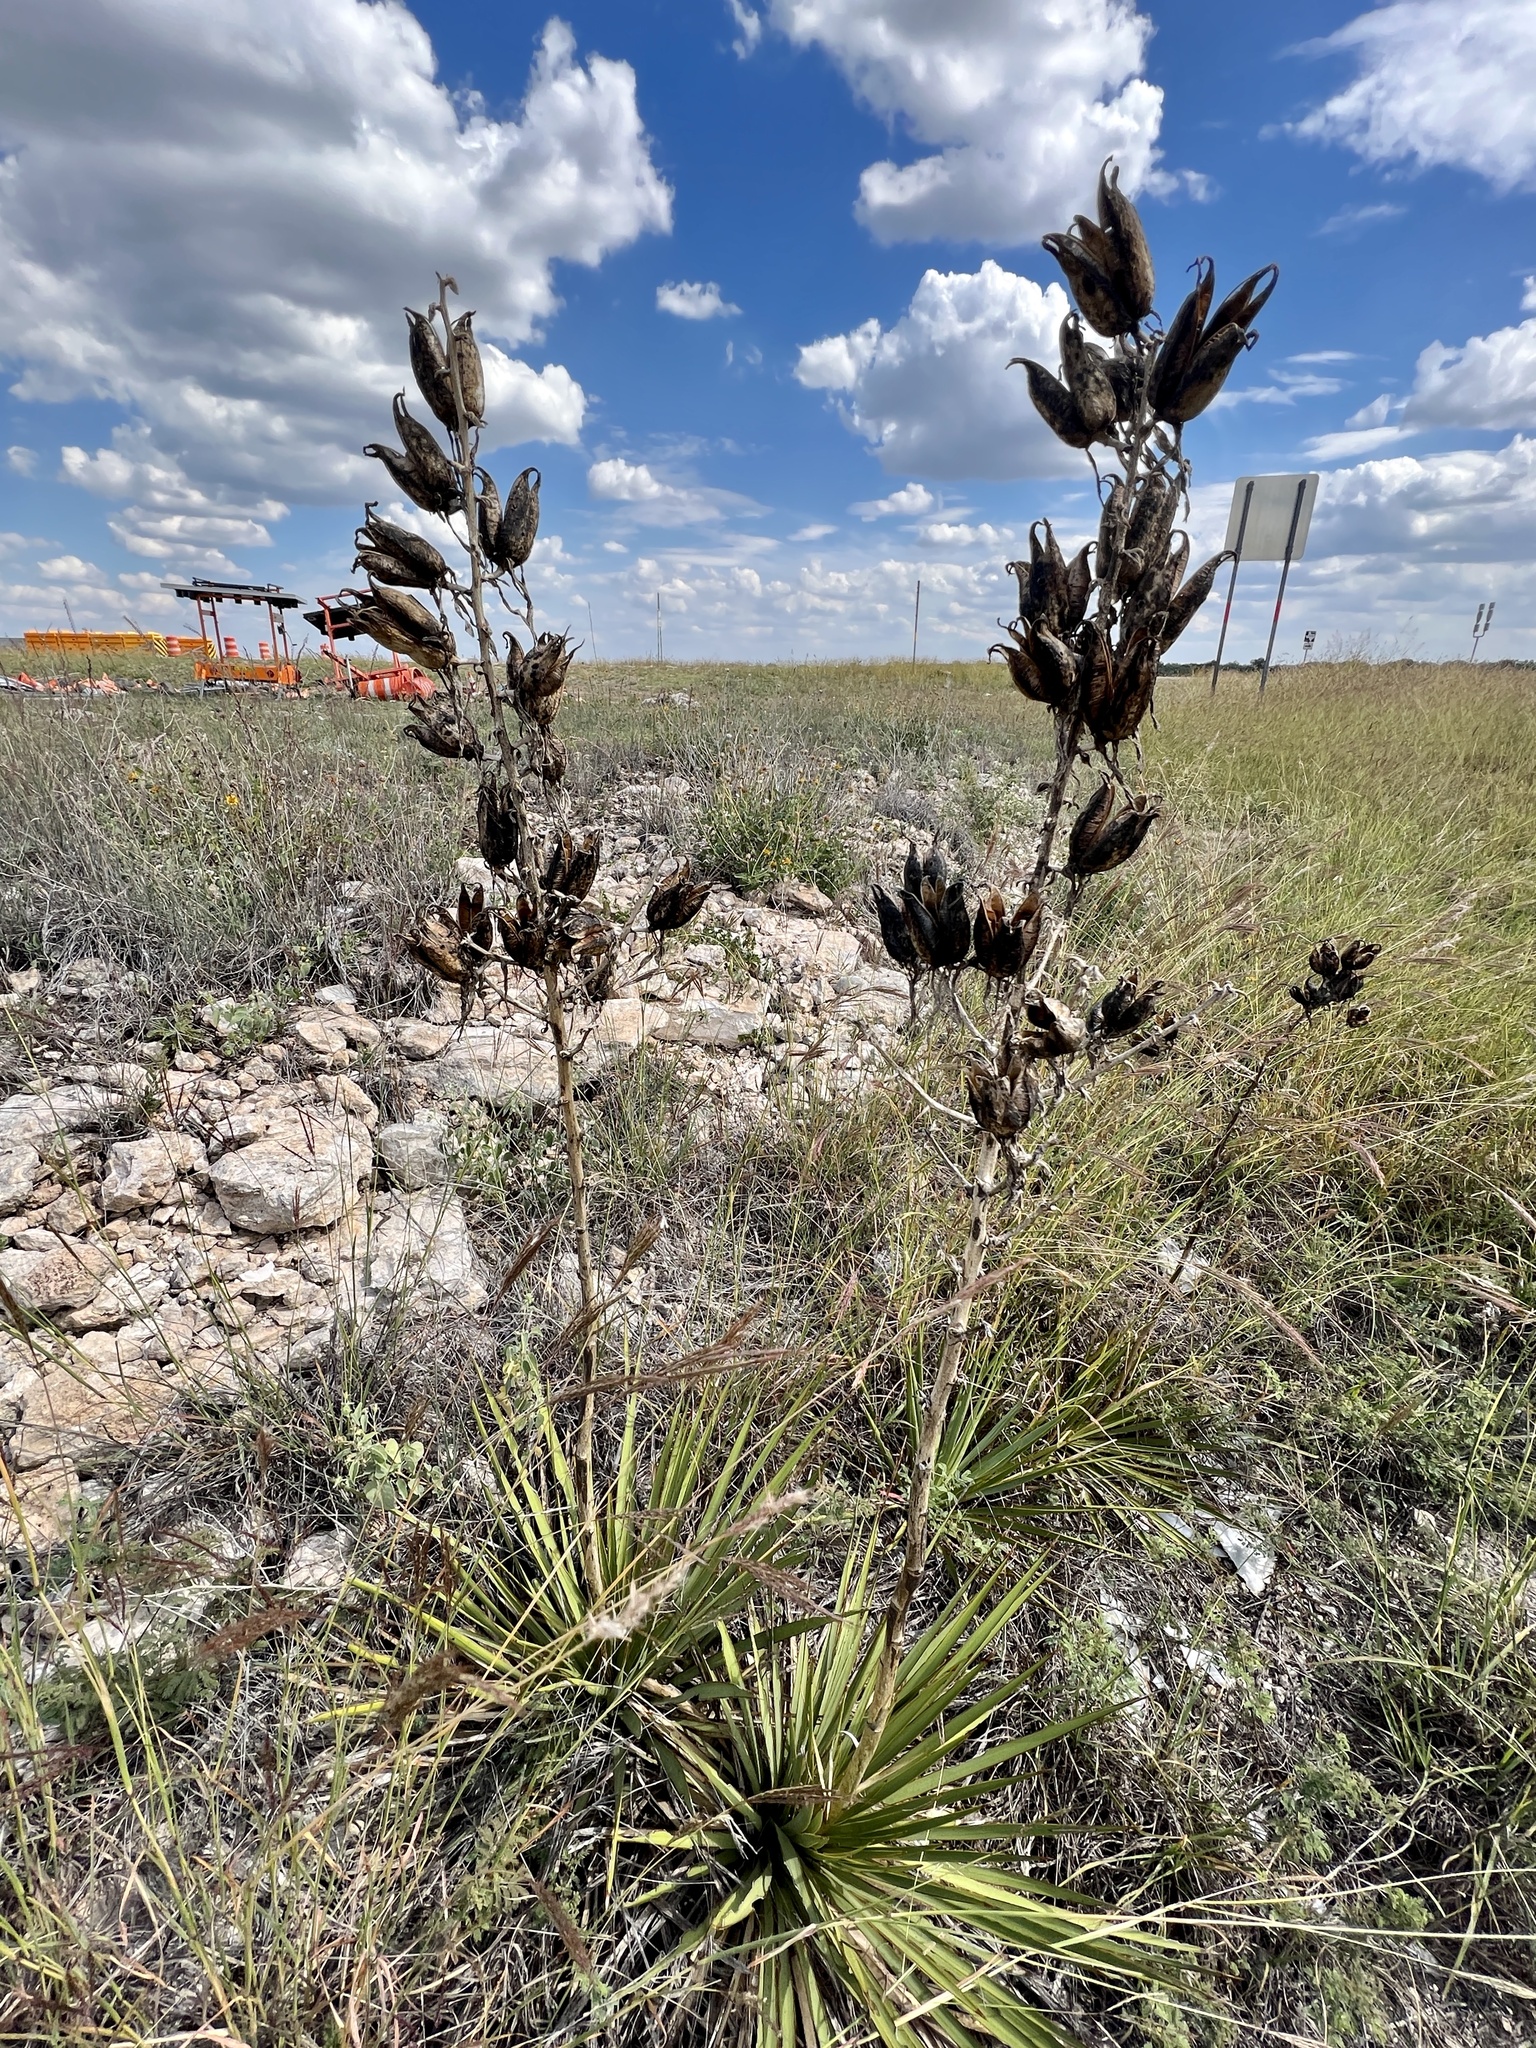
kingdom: Plantae
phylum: Tracheophyta
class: Liliopsida
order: Asparagales
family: Asparagaceae
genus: Yucca
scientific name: Yucca reverchonii
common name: San angelo yucca
